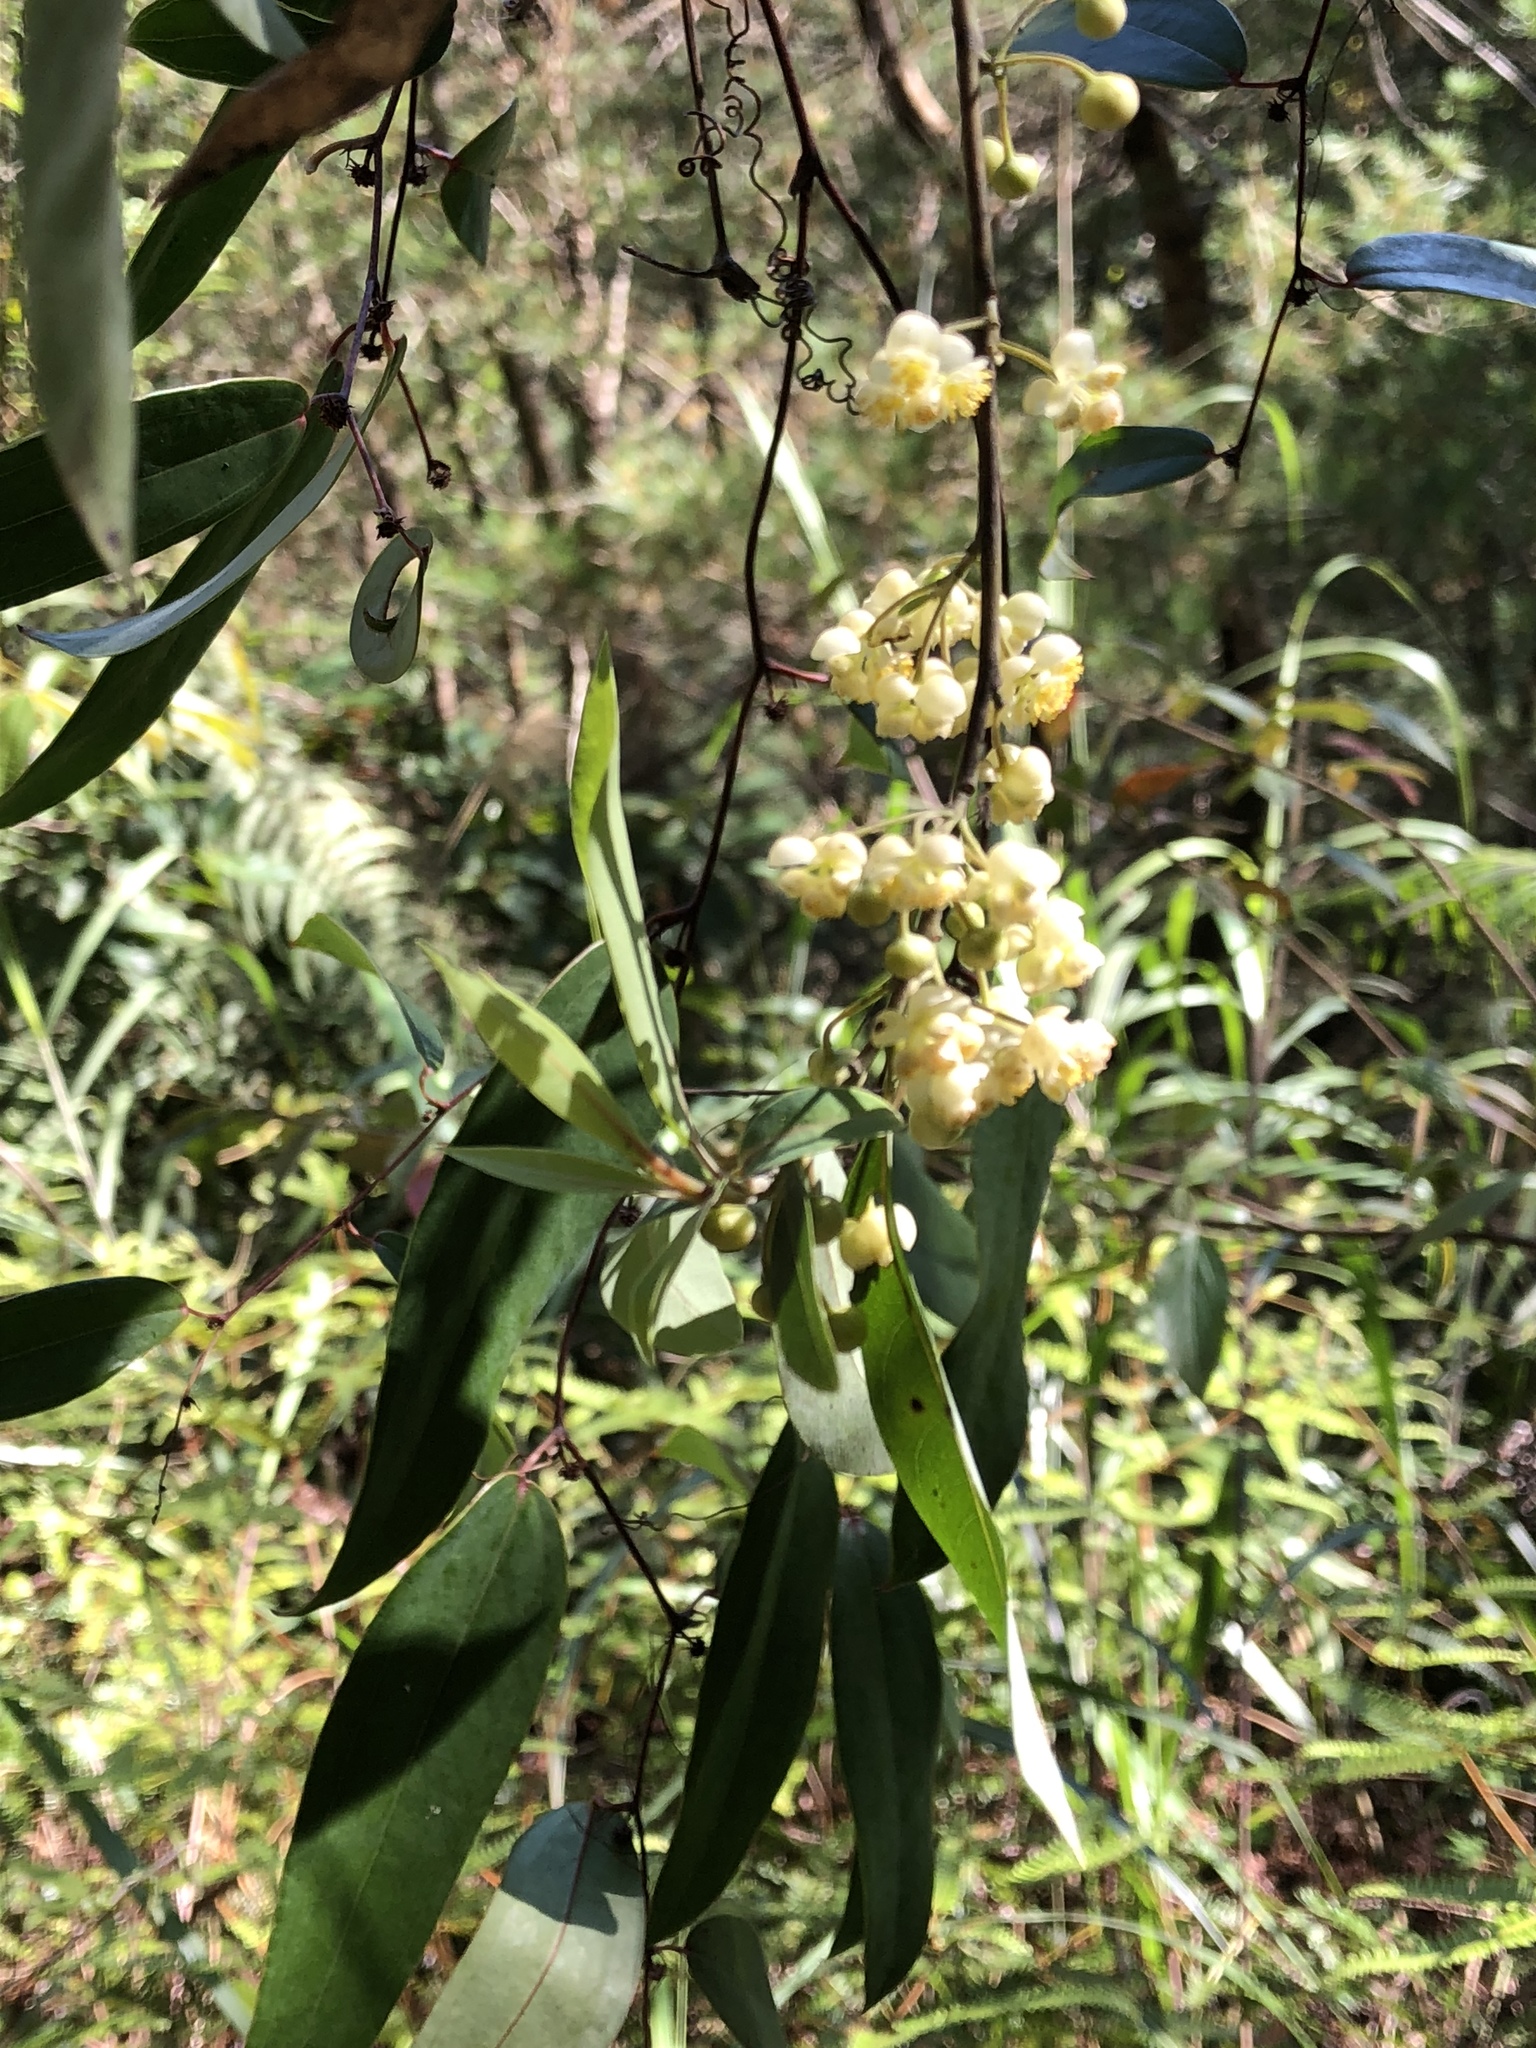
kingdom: Plantae
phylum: Tracheophyta
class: Magnoliopsida
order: Laurales
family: Lauraceae
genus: Litsea
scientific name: Litsea cubeba
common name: Mountain-pepper
